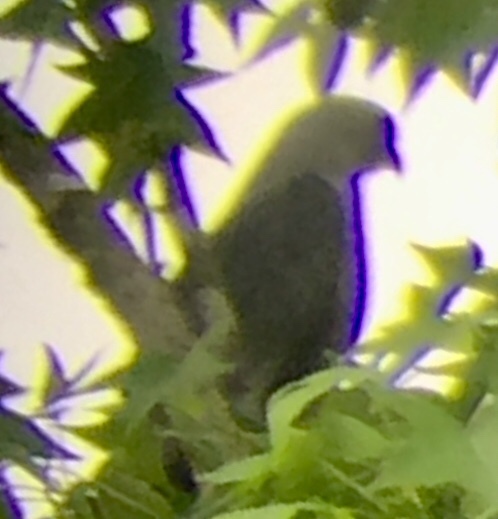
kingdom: Animalia
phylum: Chordata
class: Aves
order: Accipitriformes
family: Accipitridae
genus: Ictinia
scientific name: Ictinia mississippiensis
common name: Mississippi kite
